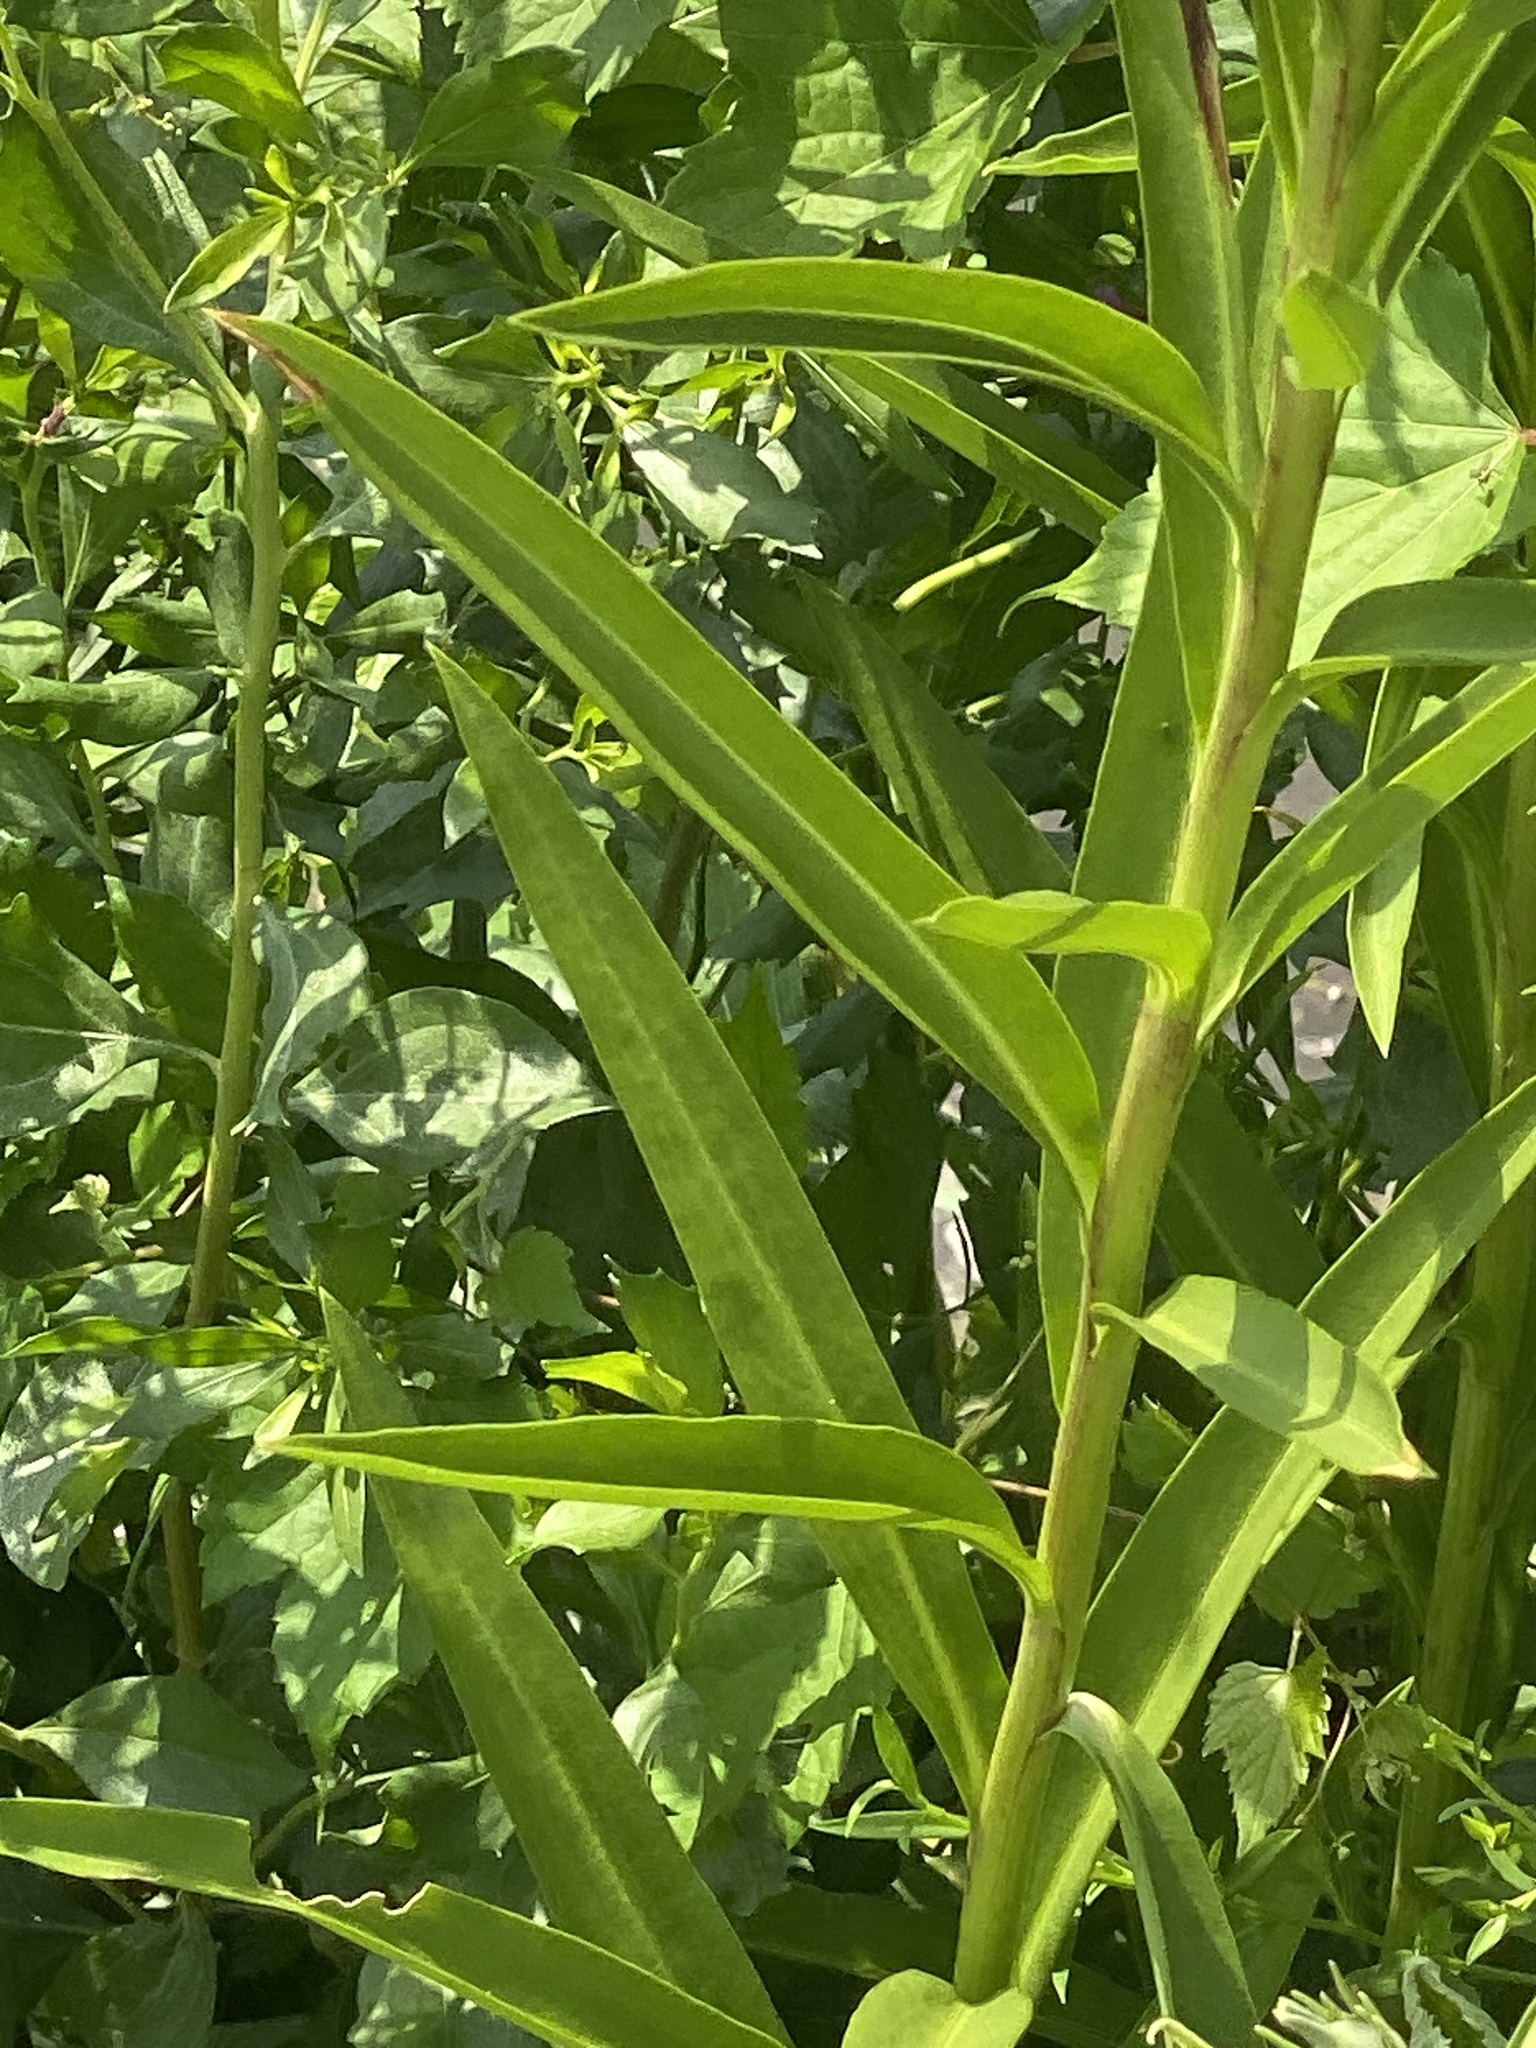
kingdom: Plantae
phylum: Tracheophyta
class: Magnoliopsida
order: Asterales
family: Asteraceae
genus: Solidago
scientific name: Solidago sempervirens
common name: Salt-marsh goldenrod
